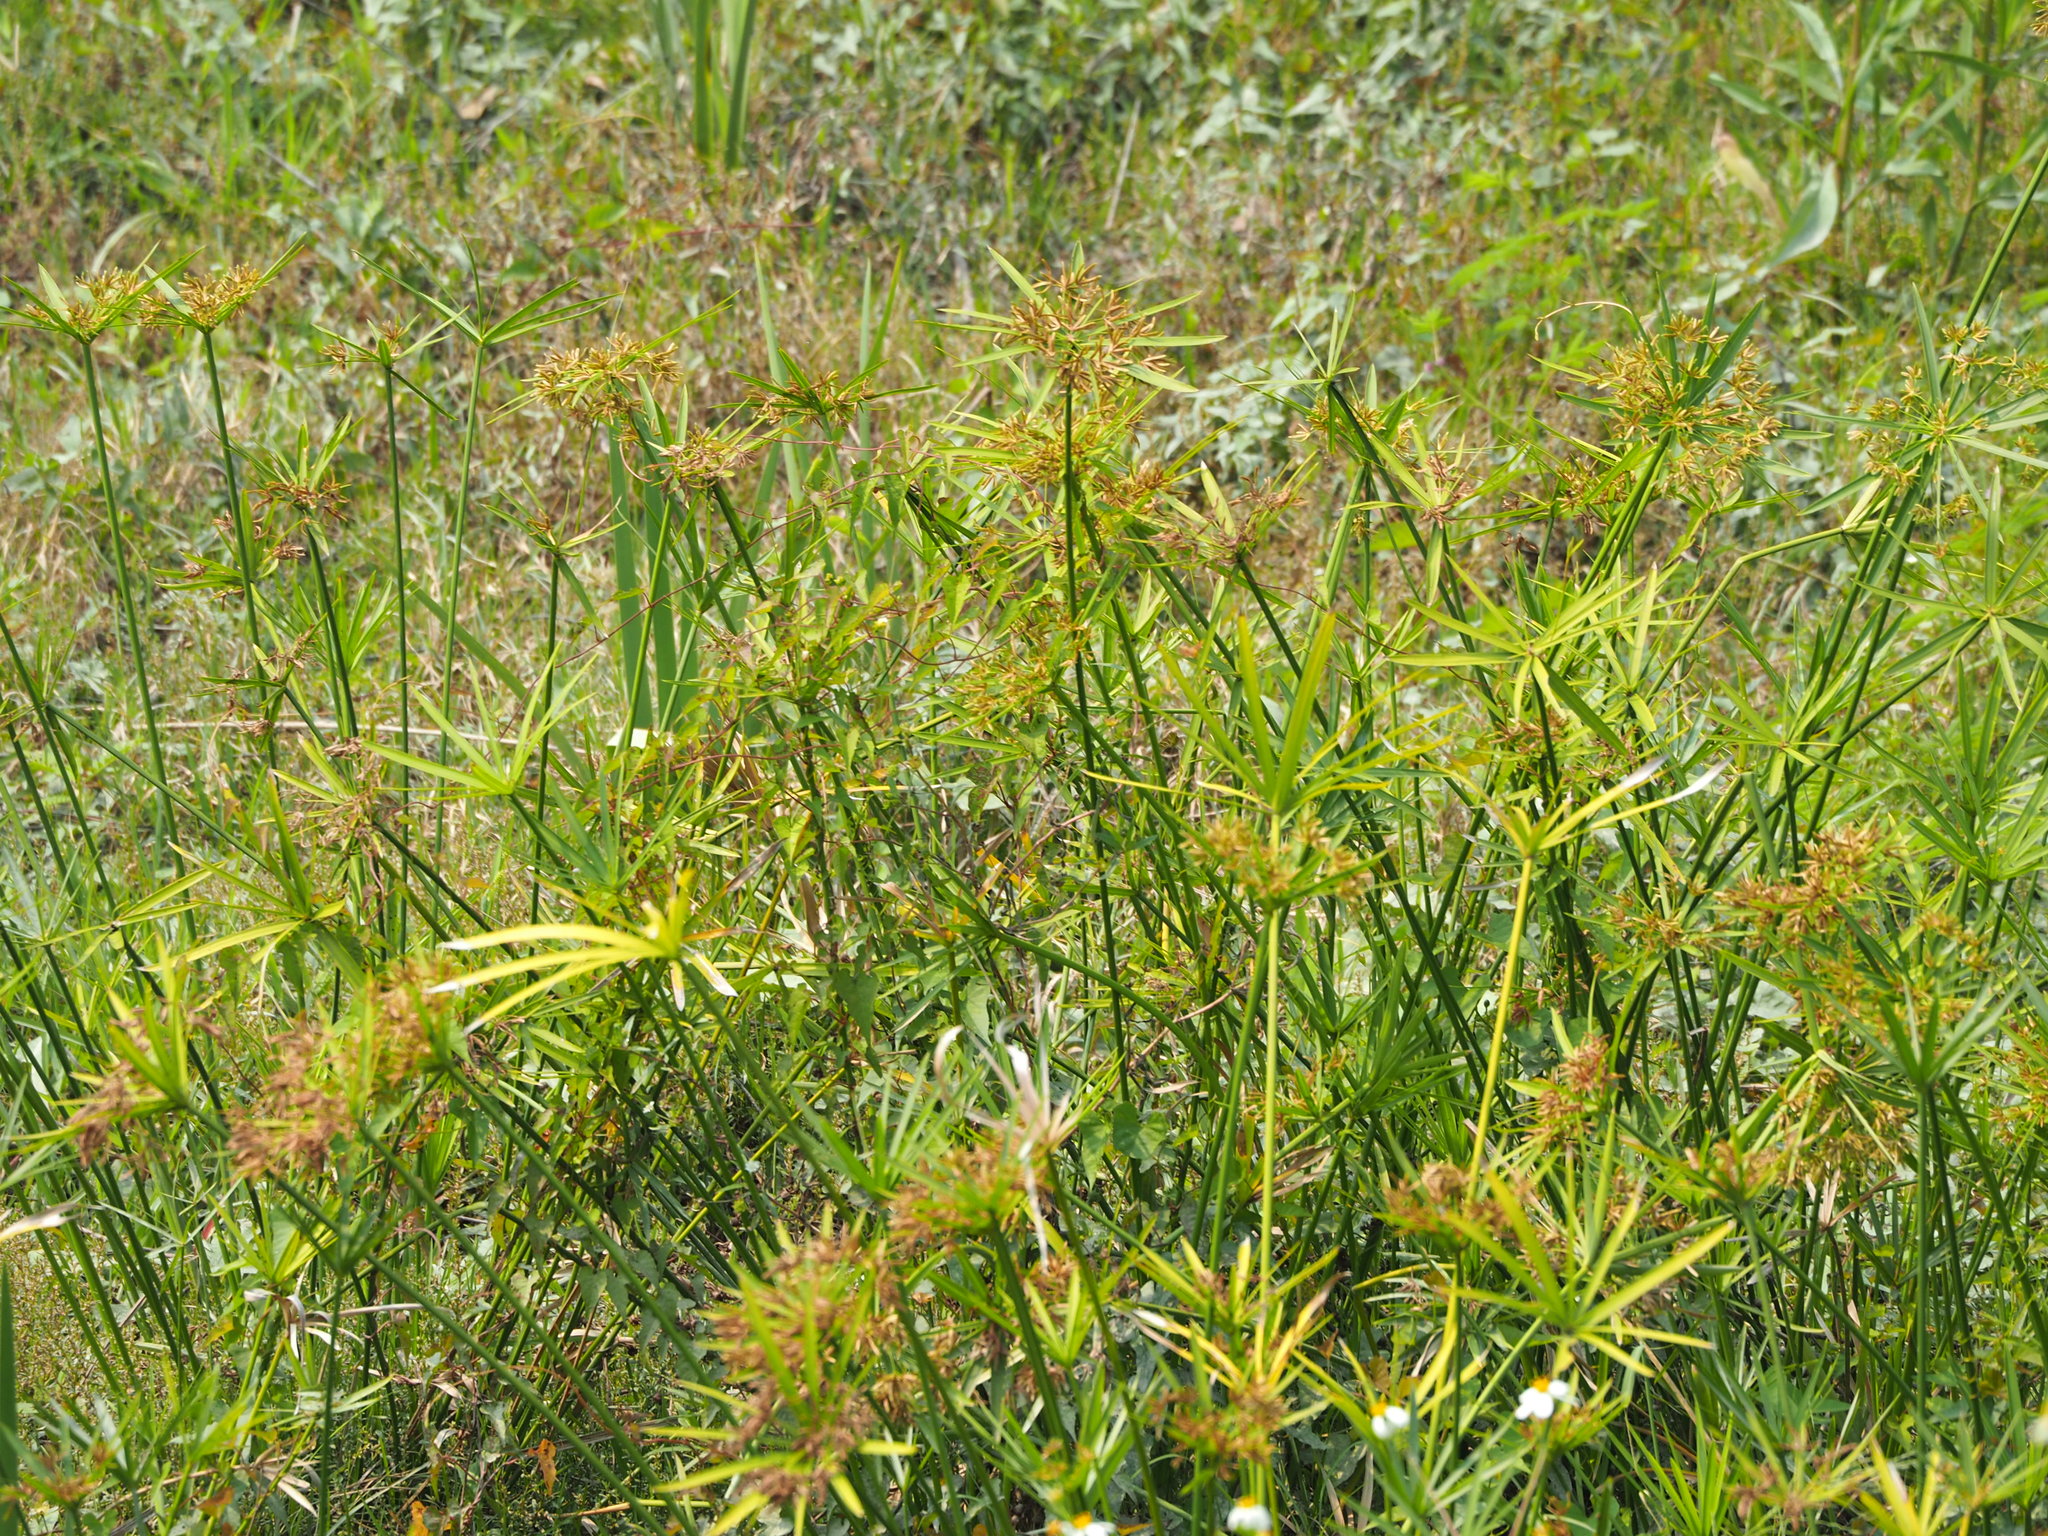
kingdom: Plantae
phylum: Tracheophyta
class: Liliopsida
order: Poales
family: Cyperaceae
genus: Cyperus
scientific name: Cyperus alternifolius
